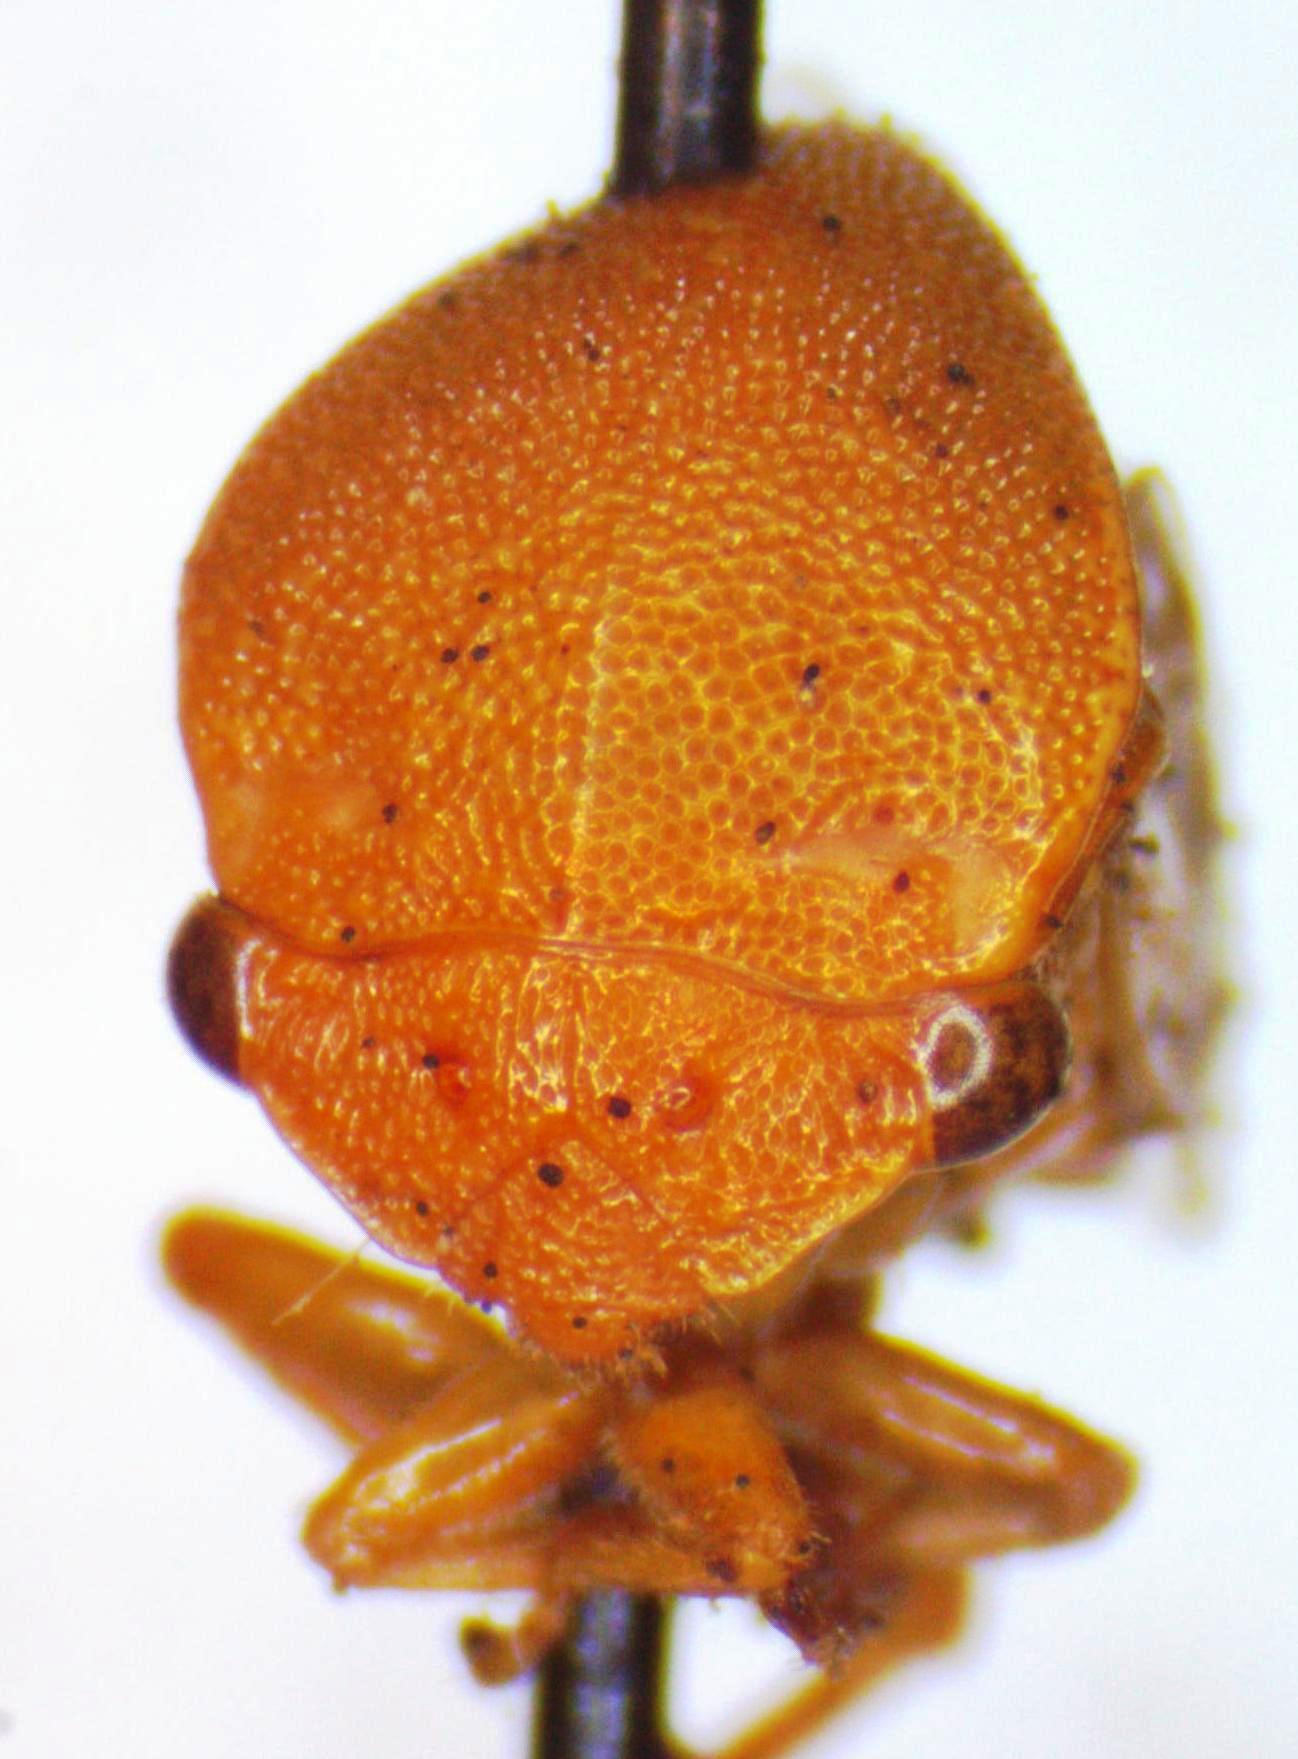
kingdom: Animalia
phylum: Arthropoda
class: Insecta
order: Hemiptera
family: Membracidae
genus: Spissistilus
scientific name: Spissistilus festina
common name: Membracid bug
